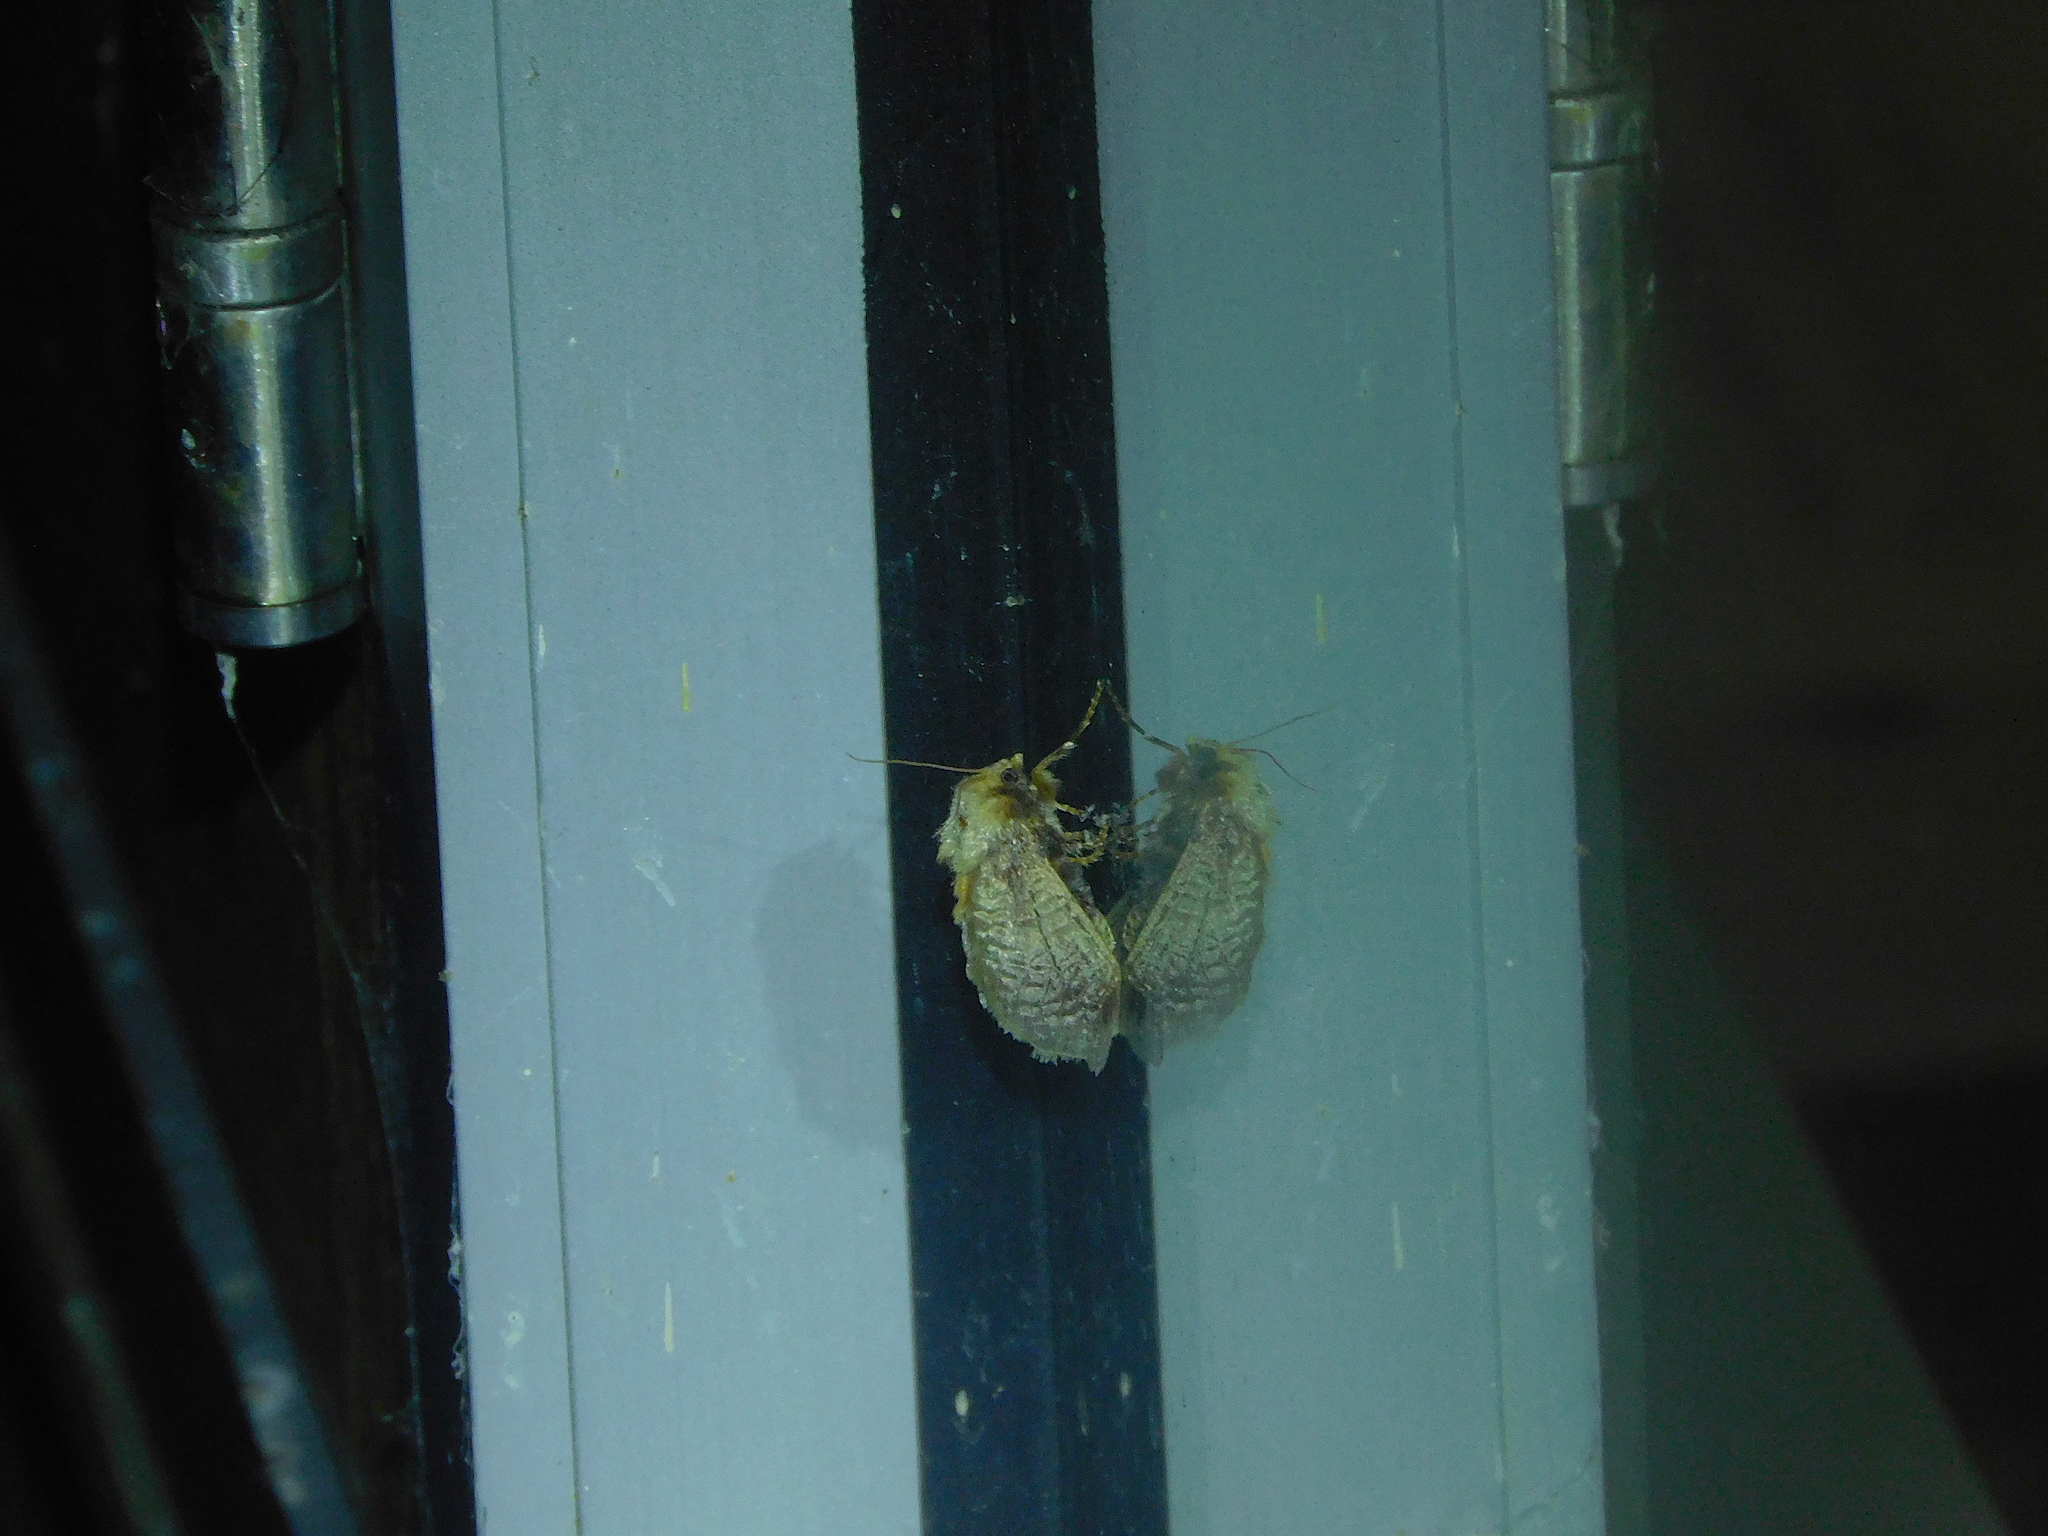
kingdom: Animalia
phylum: Arthropoda
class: Insecta
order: Lepidoptera
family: Limacodidae
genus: Doratifera
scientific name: Doratifera oxleyi
